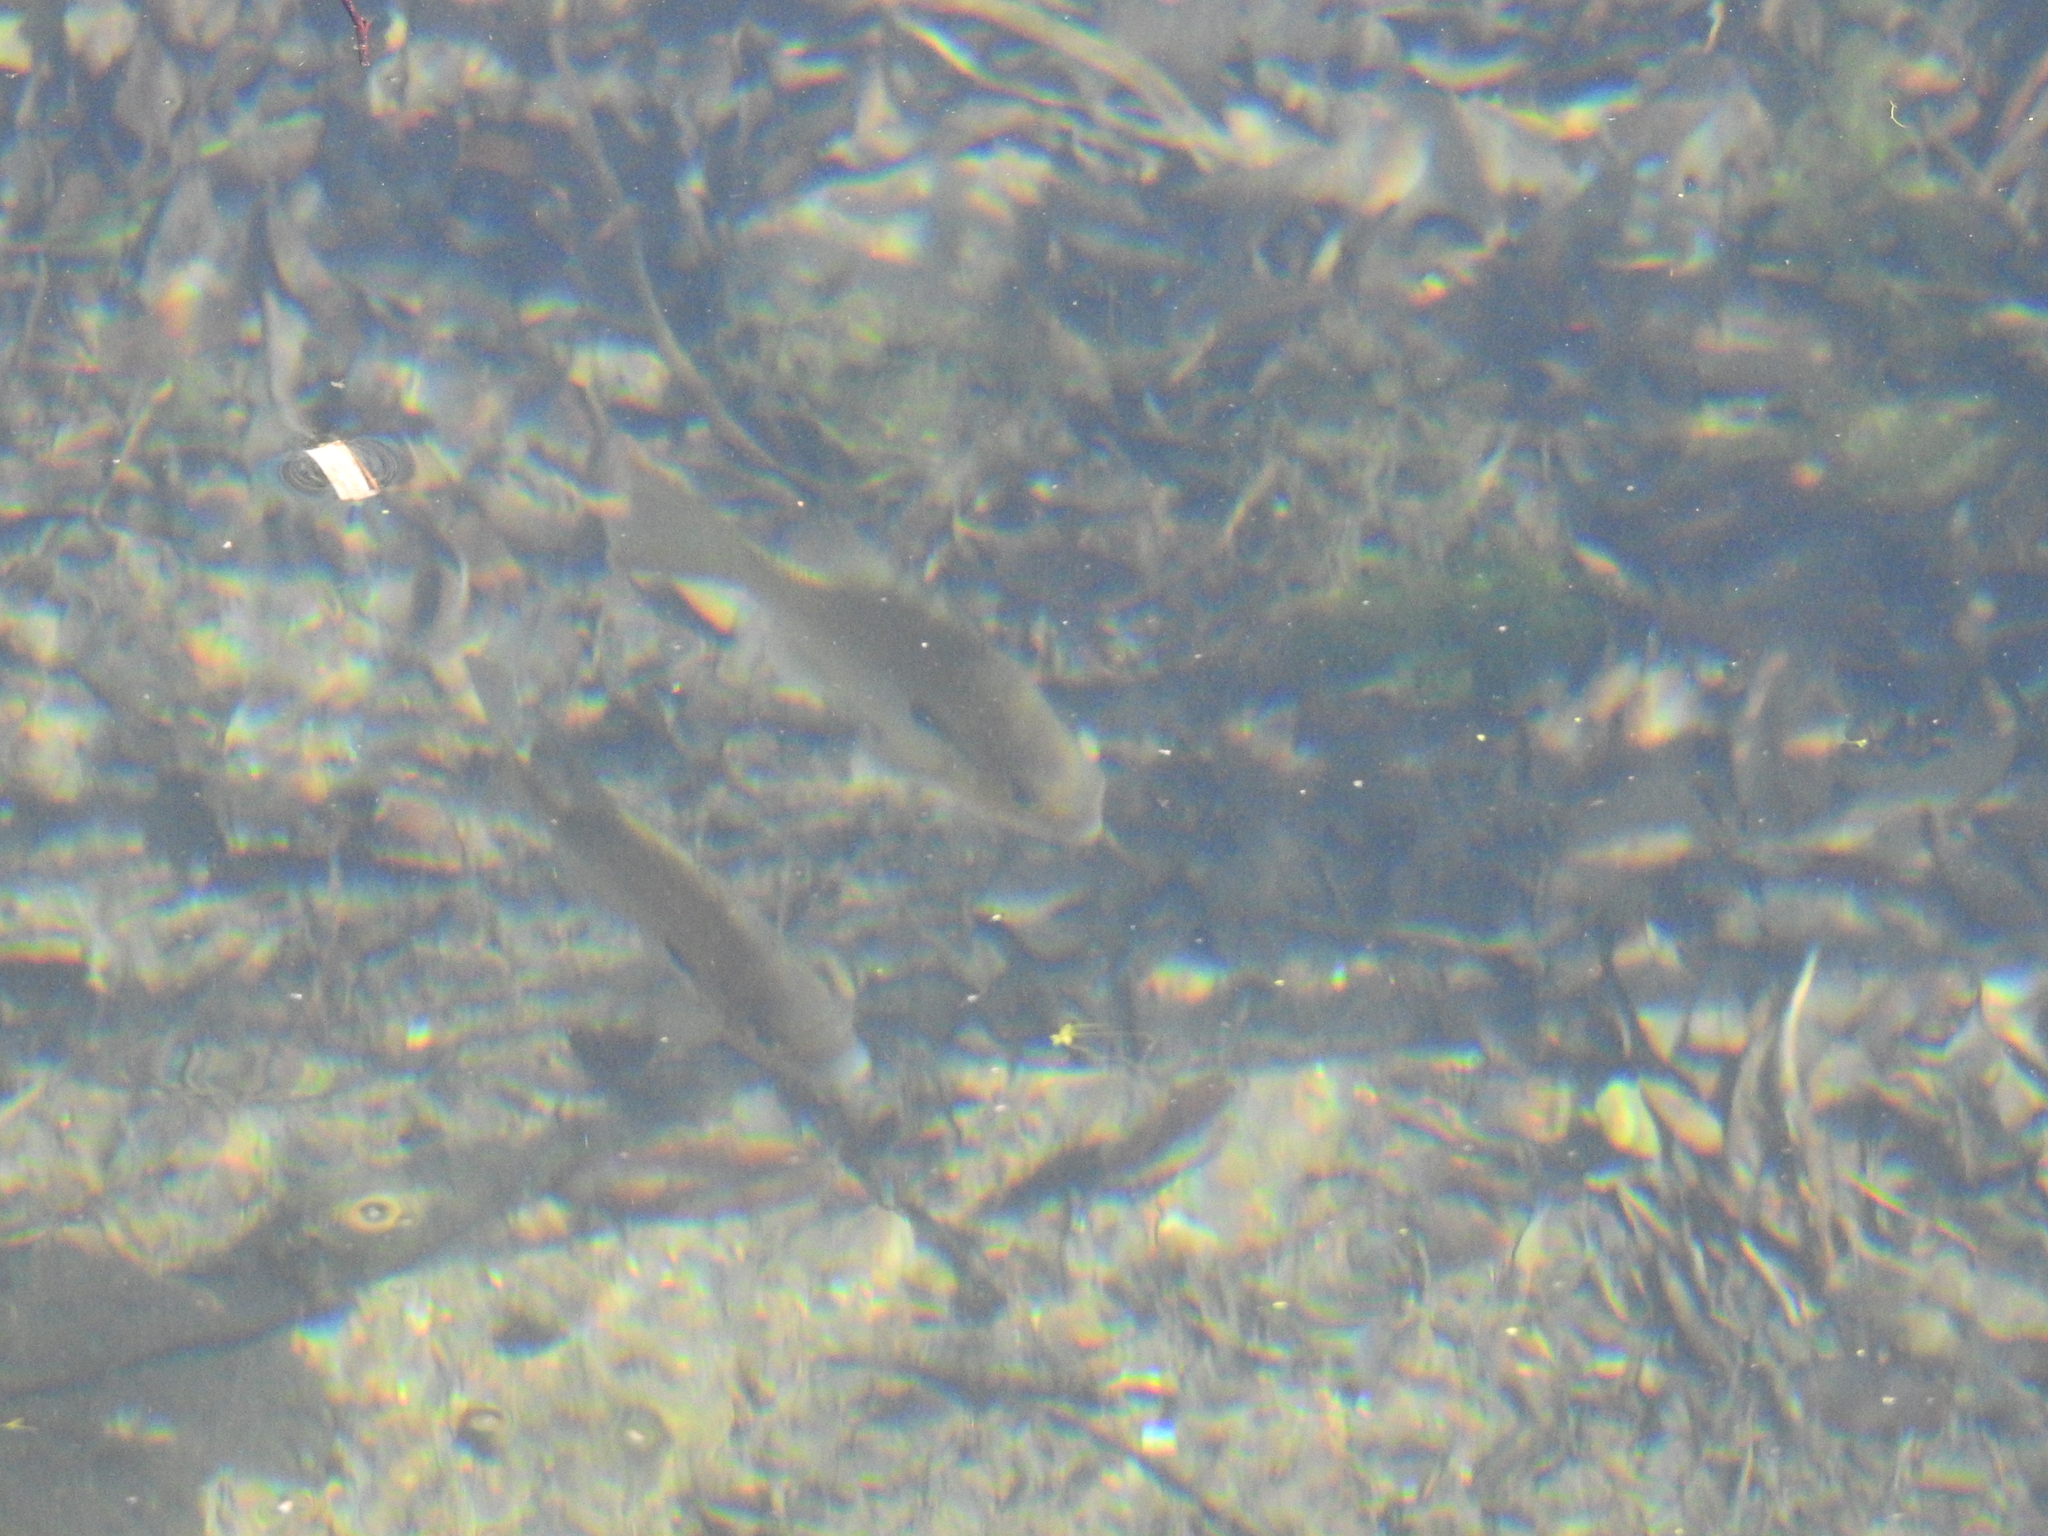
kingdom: Animalia
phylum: Chordata
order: Perciformes
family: Centrarchidae
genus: Lepomis
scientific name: Lepomis auritus
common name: Redbreast sunfish
